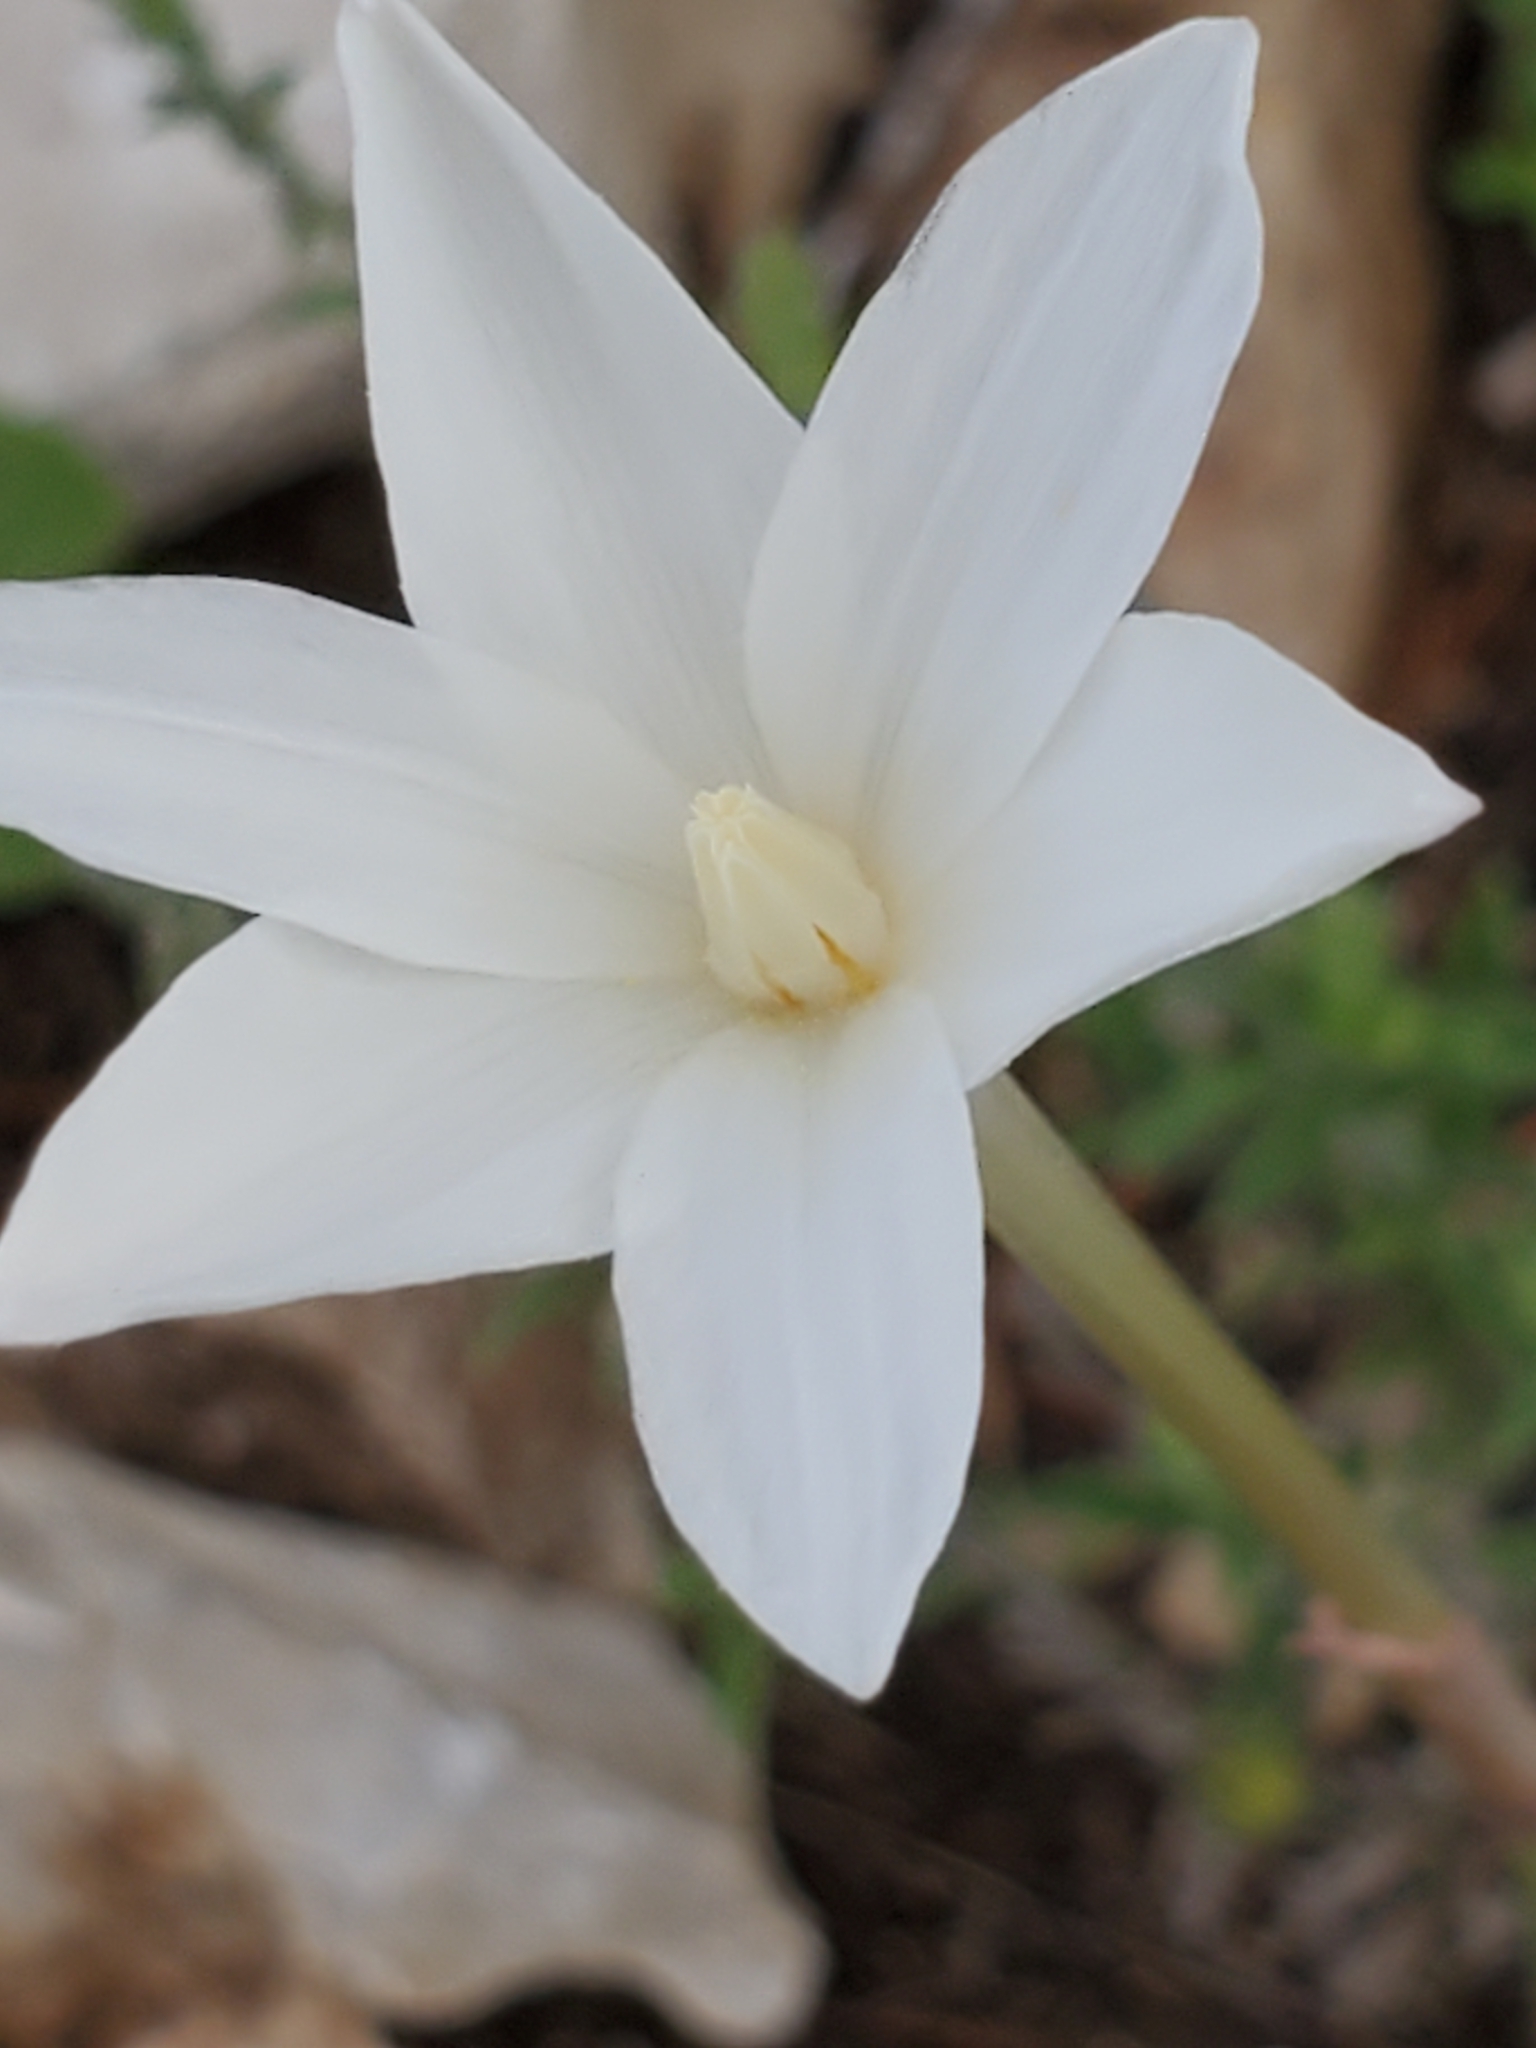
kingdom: Plantae
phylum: Tracheophyta
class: Liliopsida
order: Asparagales
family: Amaryllidaceae
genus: Zephyranthes
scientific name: Zephyranthes chlorosolen
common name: Evening rain-lily
